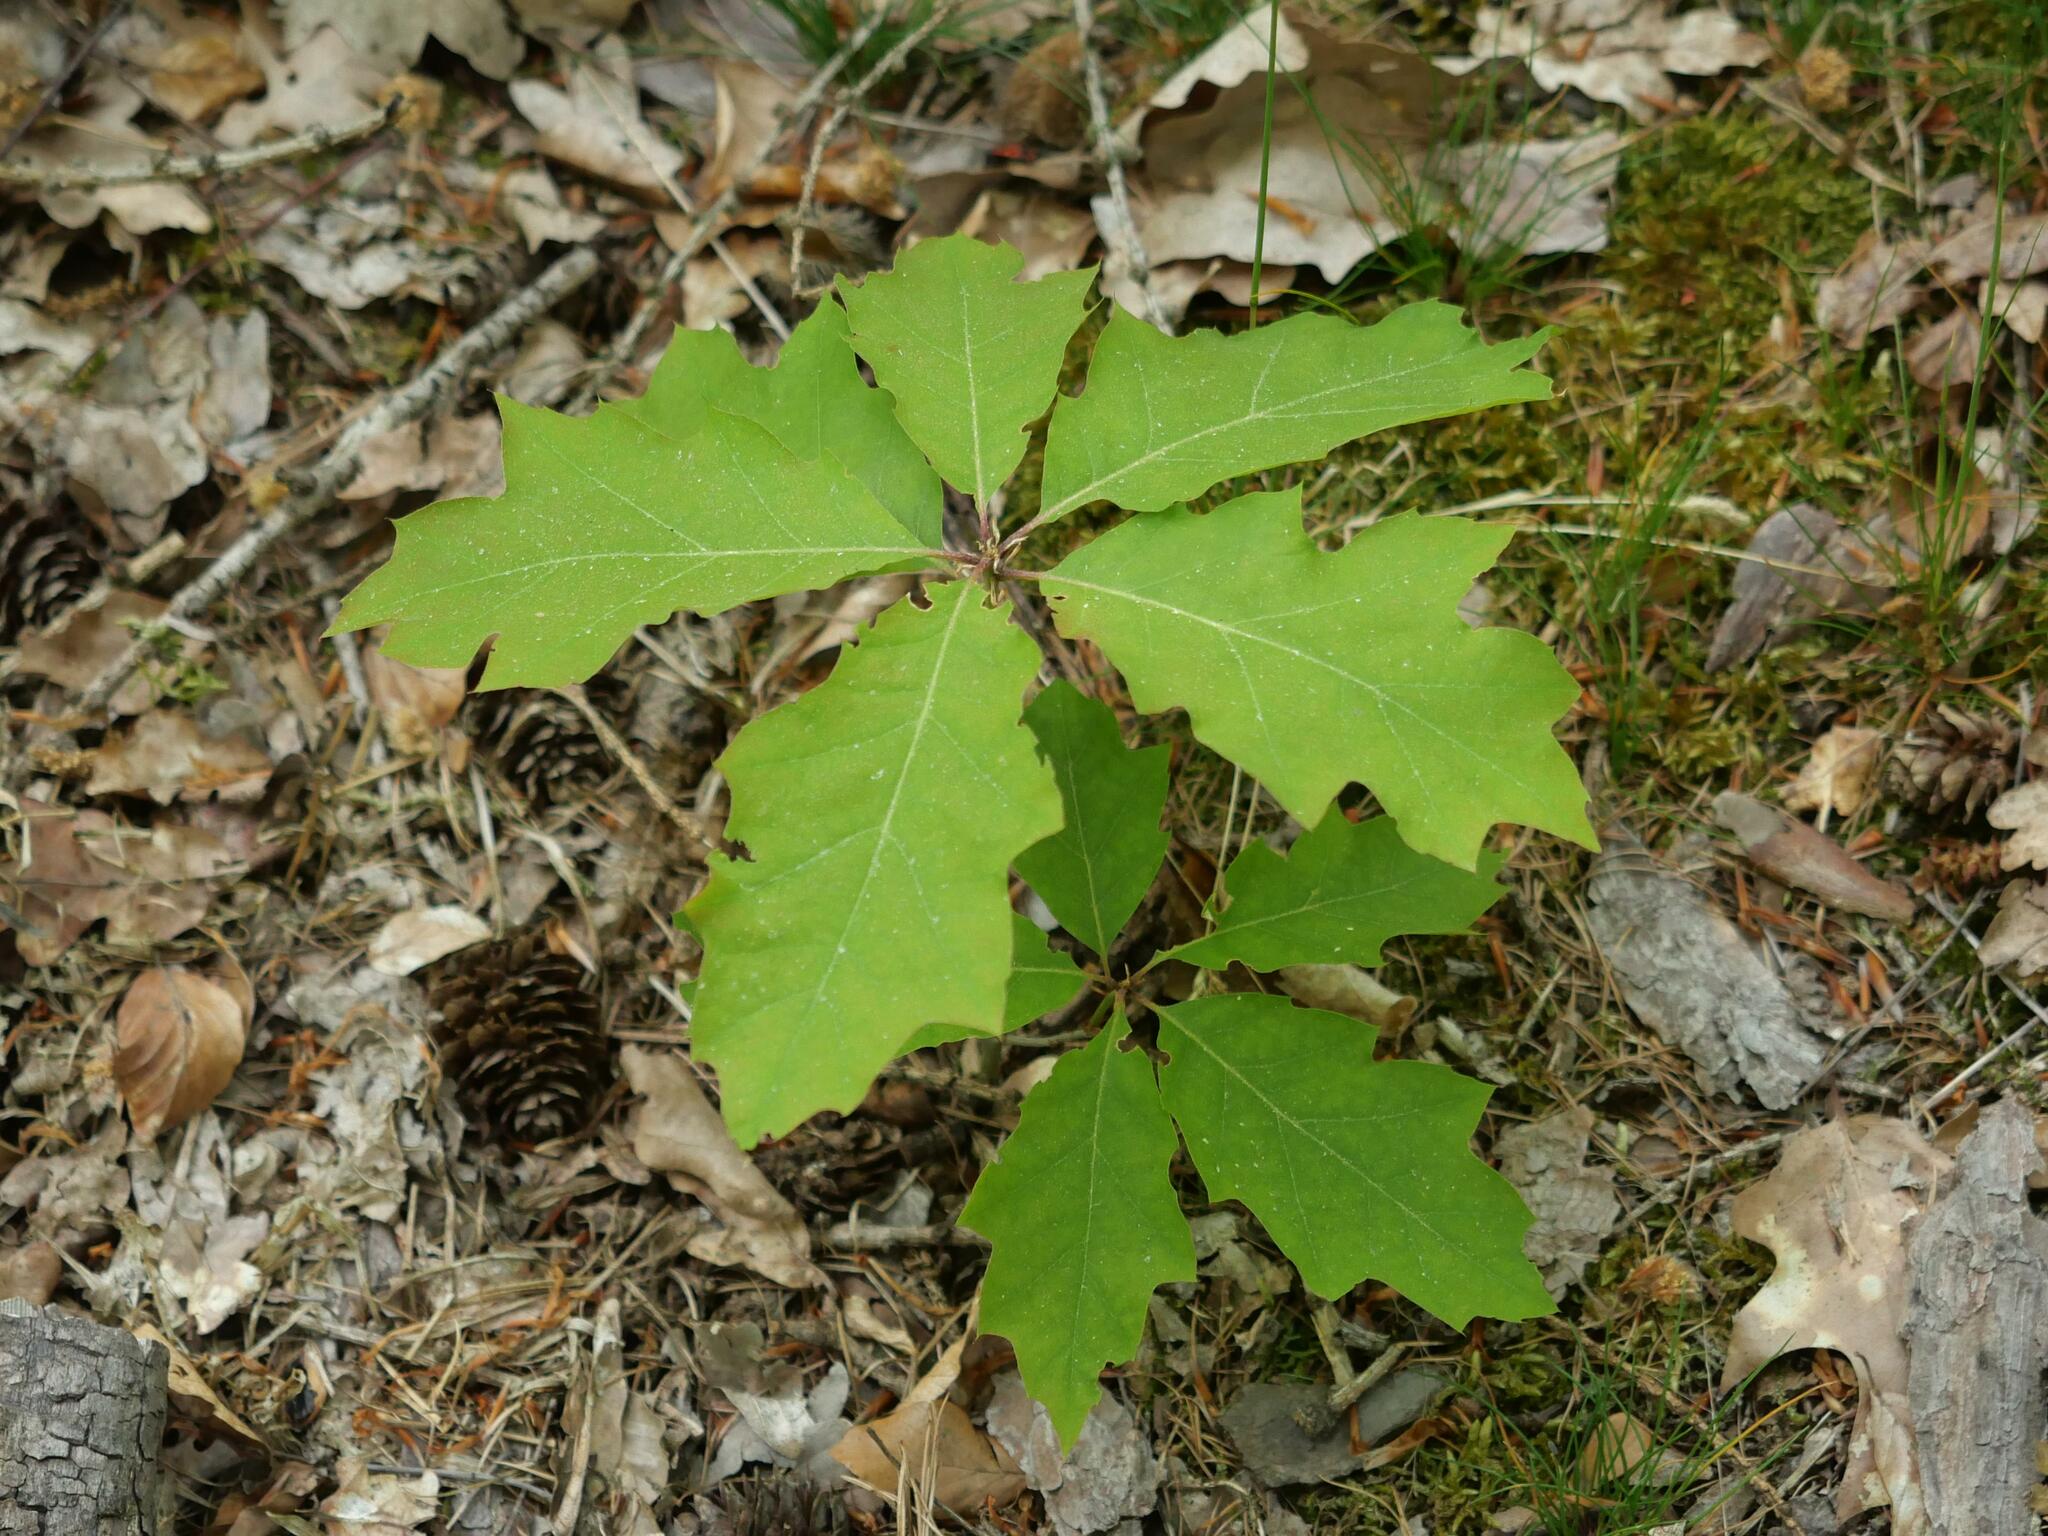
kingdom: Plantae
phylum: Tracheophyta
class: Magnoliopsida
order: Fagales
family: Fagaceae
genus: Quercus
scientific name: Quercus rubra
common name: Red oak
